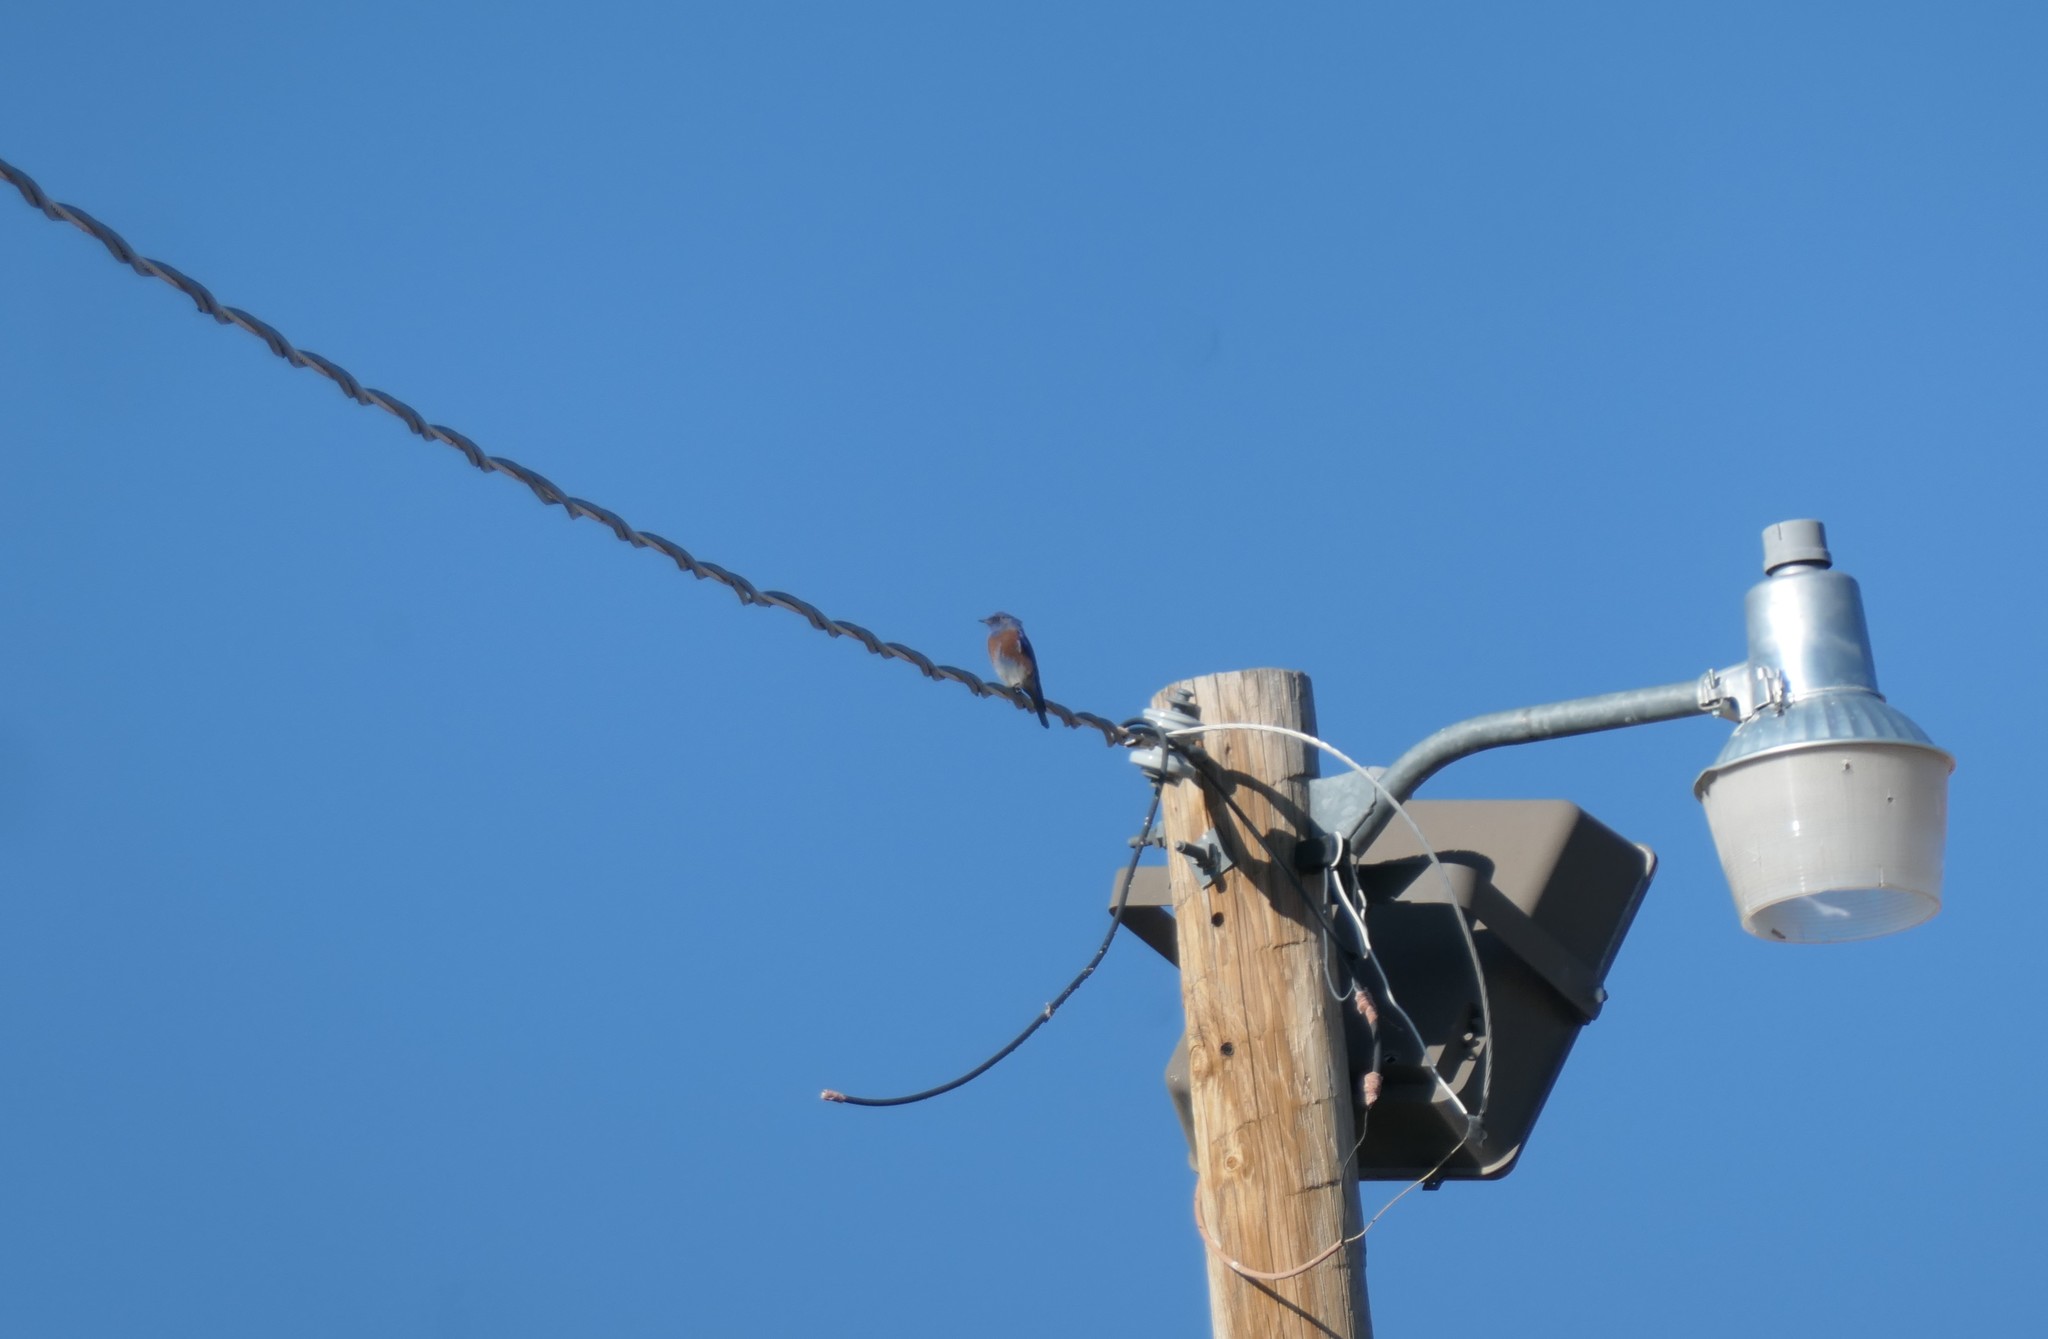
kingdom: Animalia
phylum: Chordata
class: Aves
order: Passeriformes
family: Turdidae
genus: Sialia
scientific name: Sialia mexicana
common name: Western bluebird
